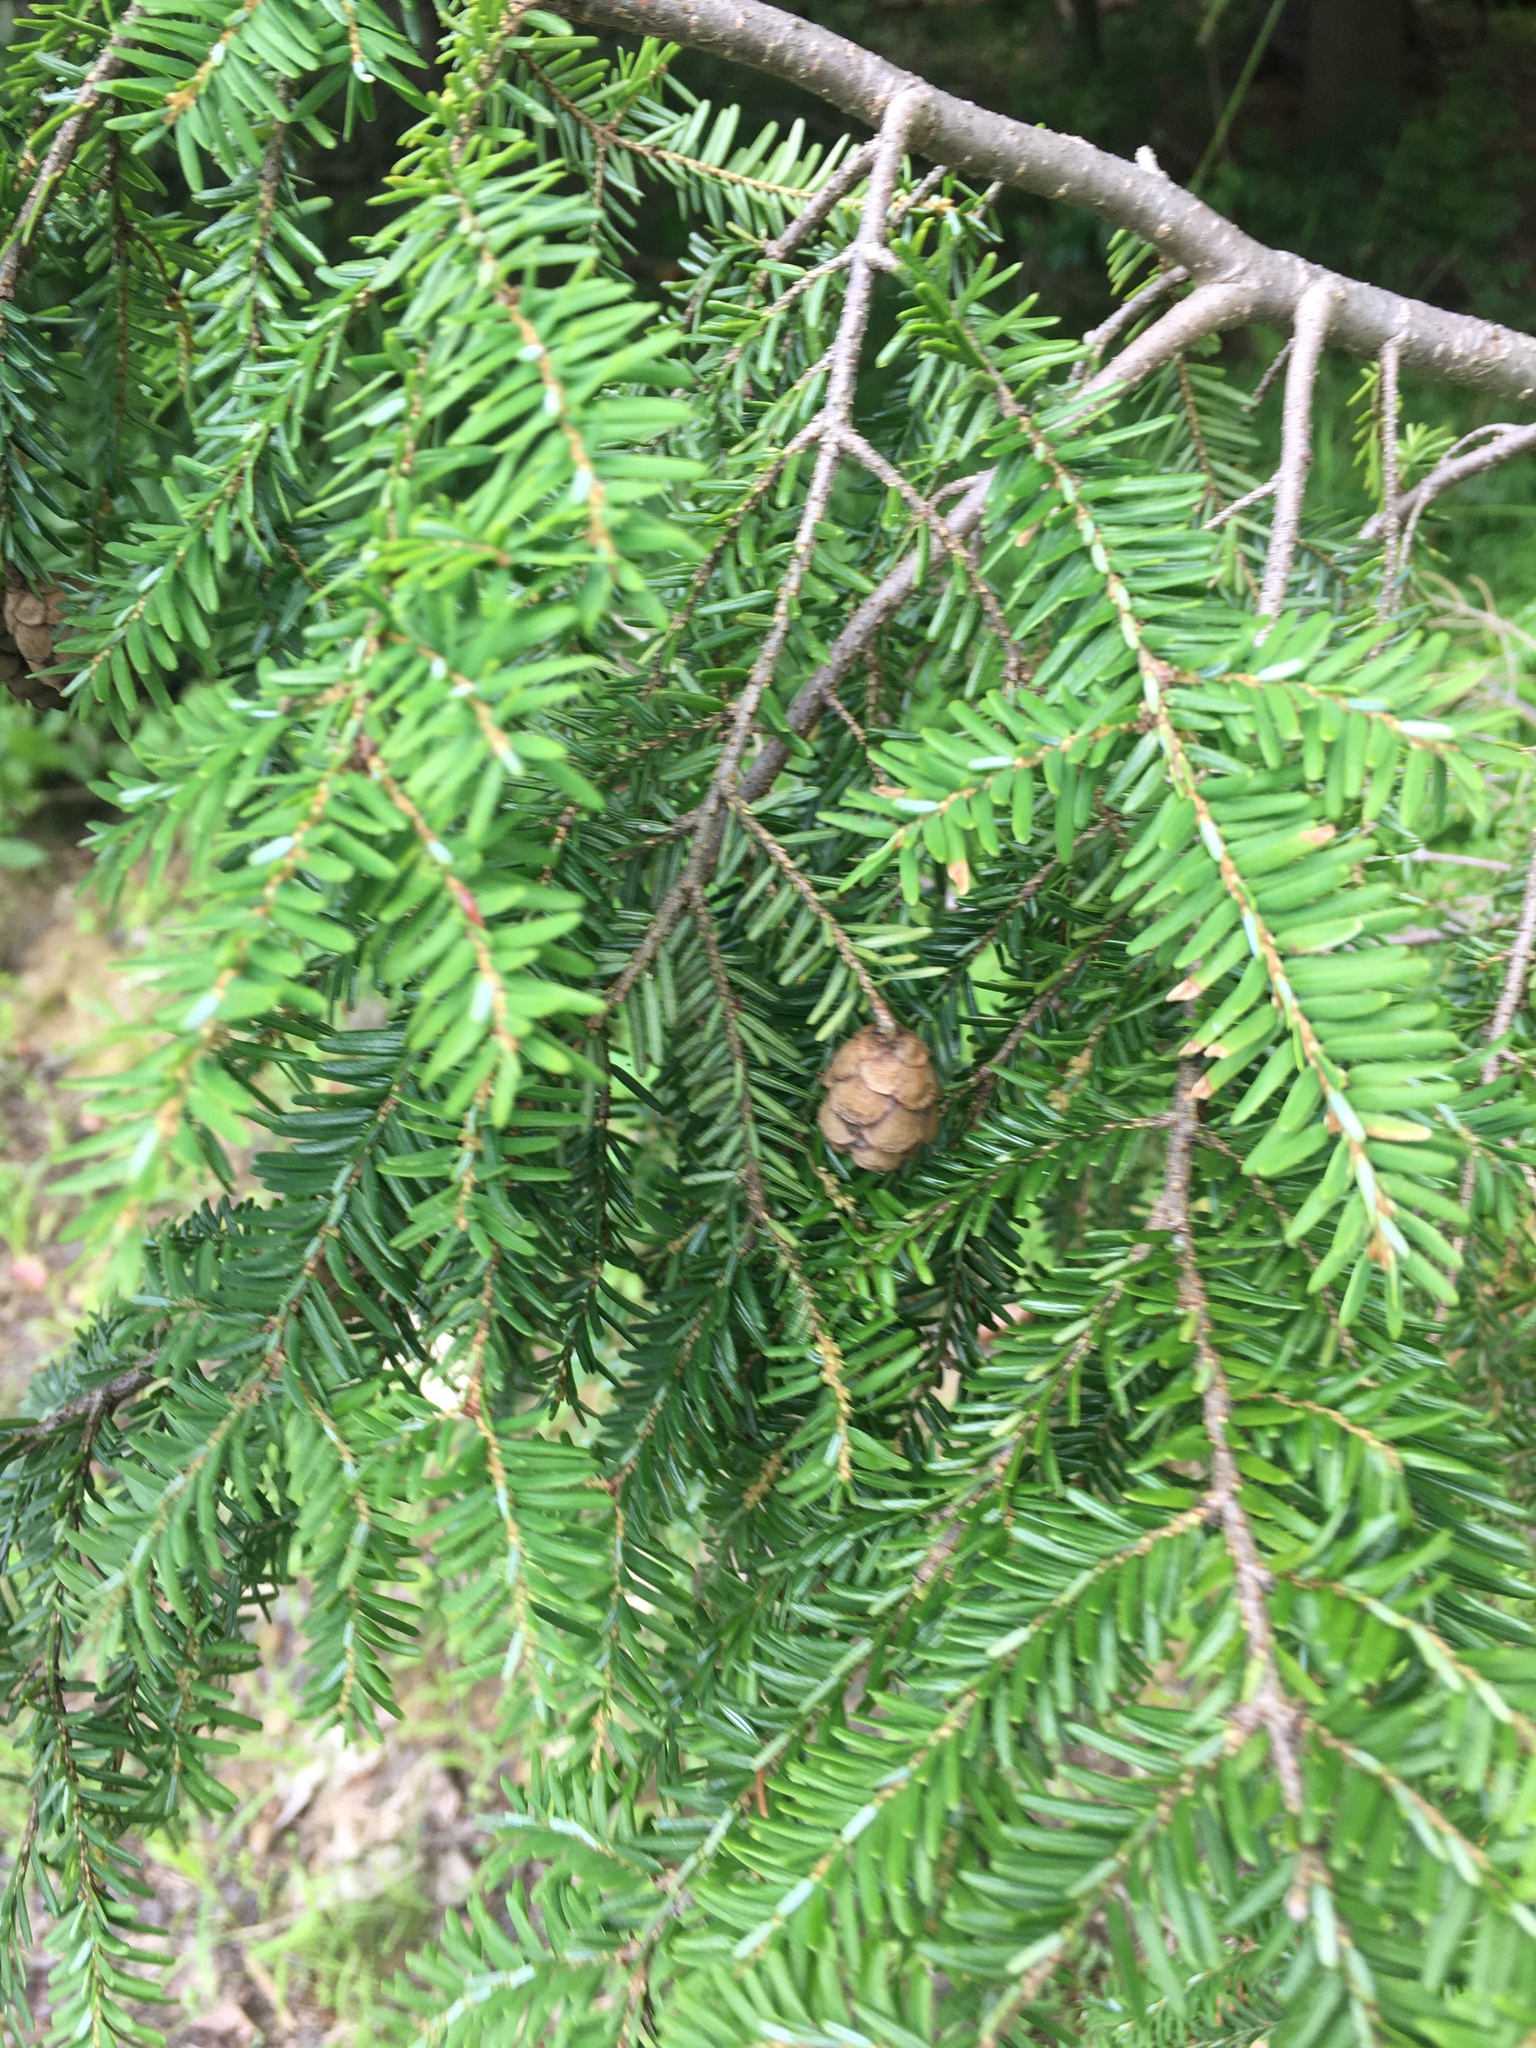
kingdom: Plantae
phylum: Tracheophyta
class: Pinopsida
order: Pinales
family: Pinaceae
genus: Tsuga
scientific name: Tsuga canadensis
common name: Eastern hemlock
